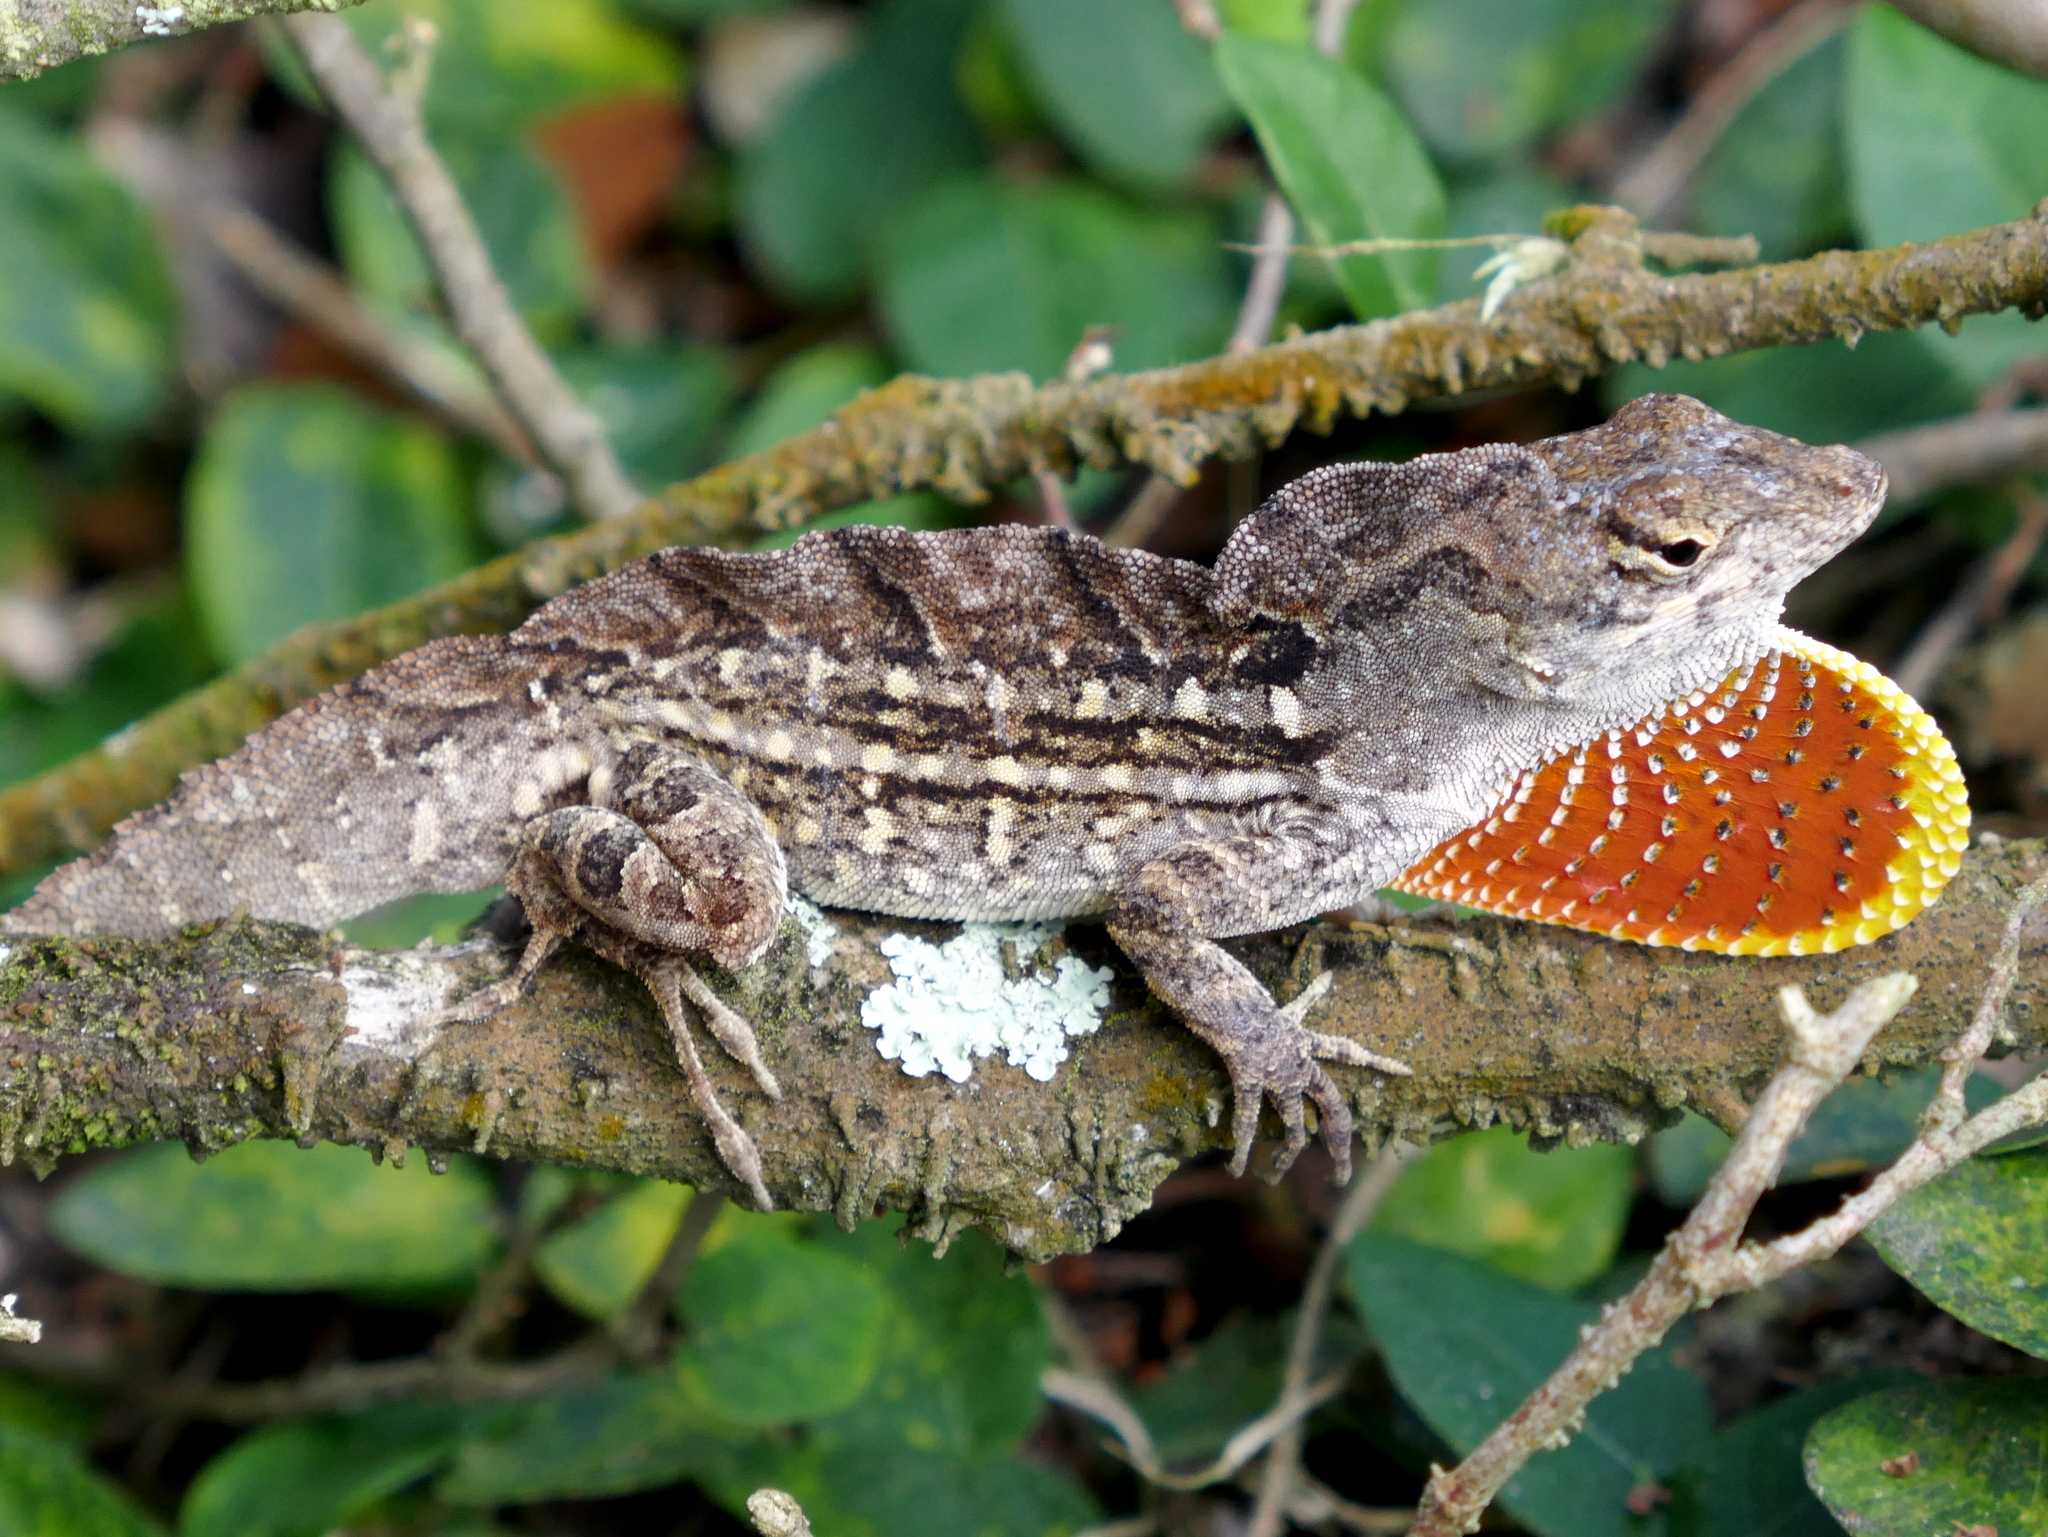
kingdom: Animalia
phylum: Chordata
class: Squamata
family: Dactyloidae
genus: Anolis
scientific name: Anolis sagrei
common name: Brown anole
